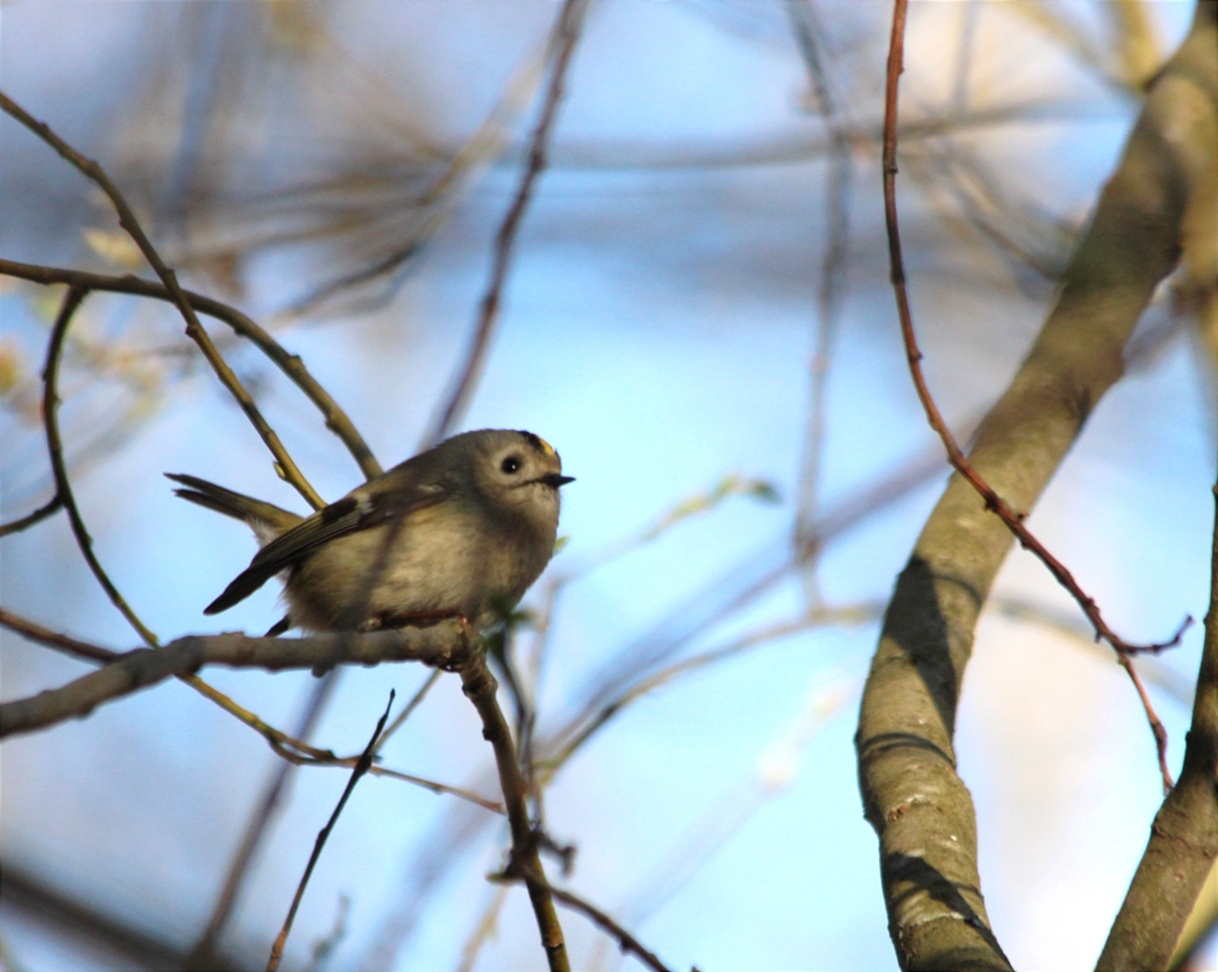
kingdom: Animalia
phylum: Chordata
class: Aves
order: Passeriformes
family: Regulidae
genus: Regulus
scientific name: Regulus regulus
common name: Goldcrest
